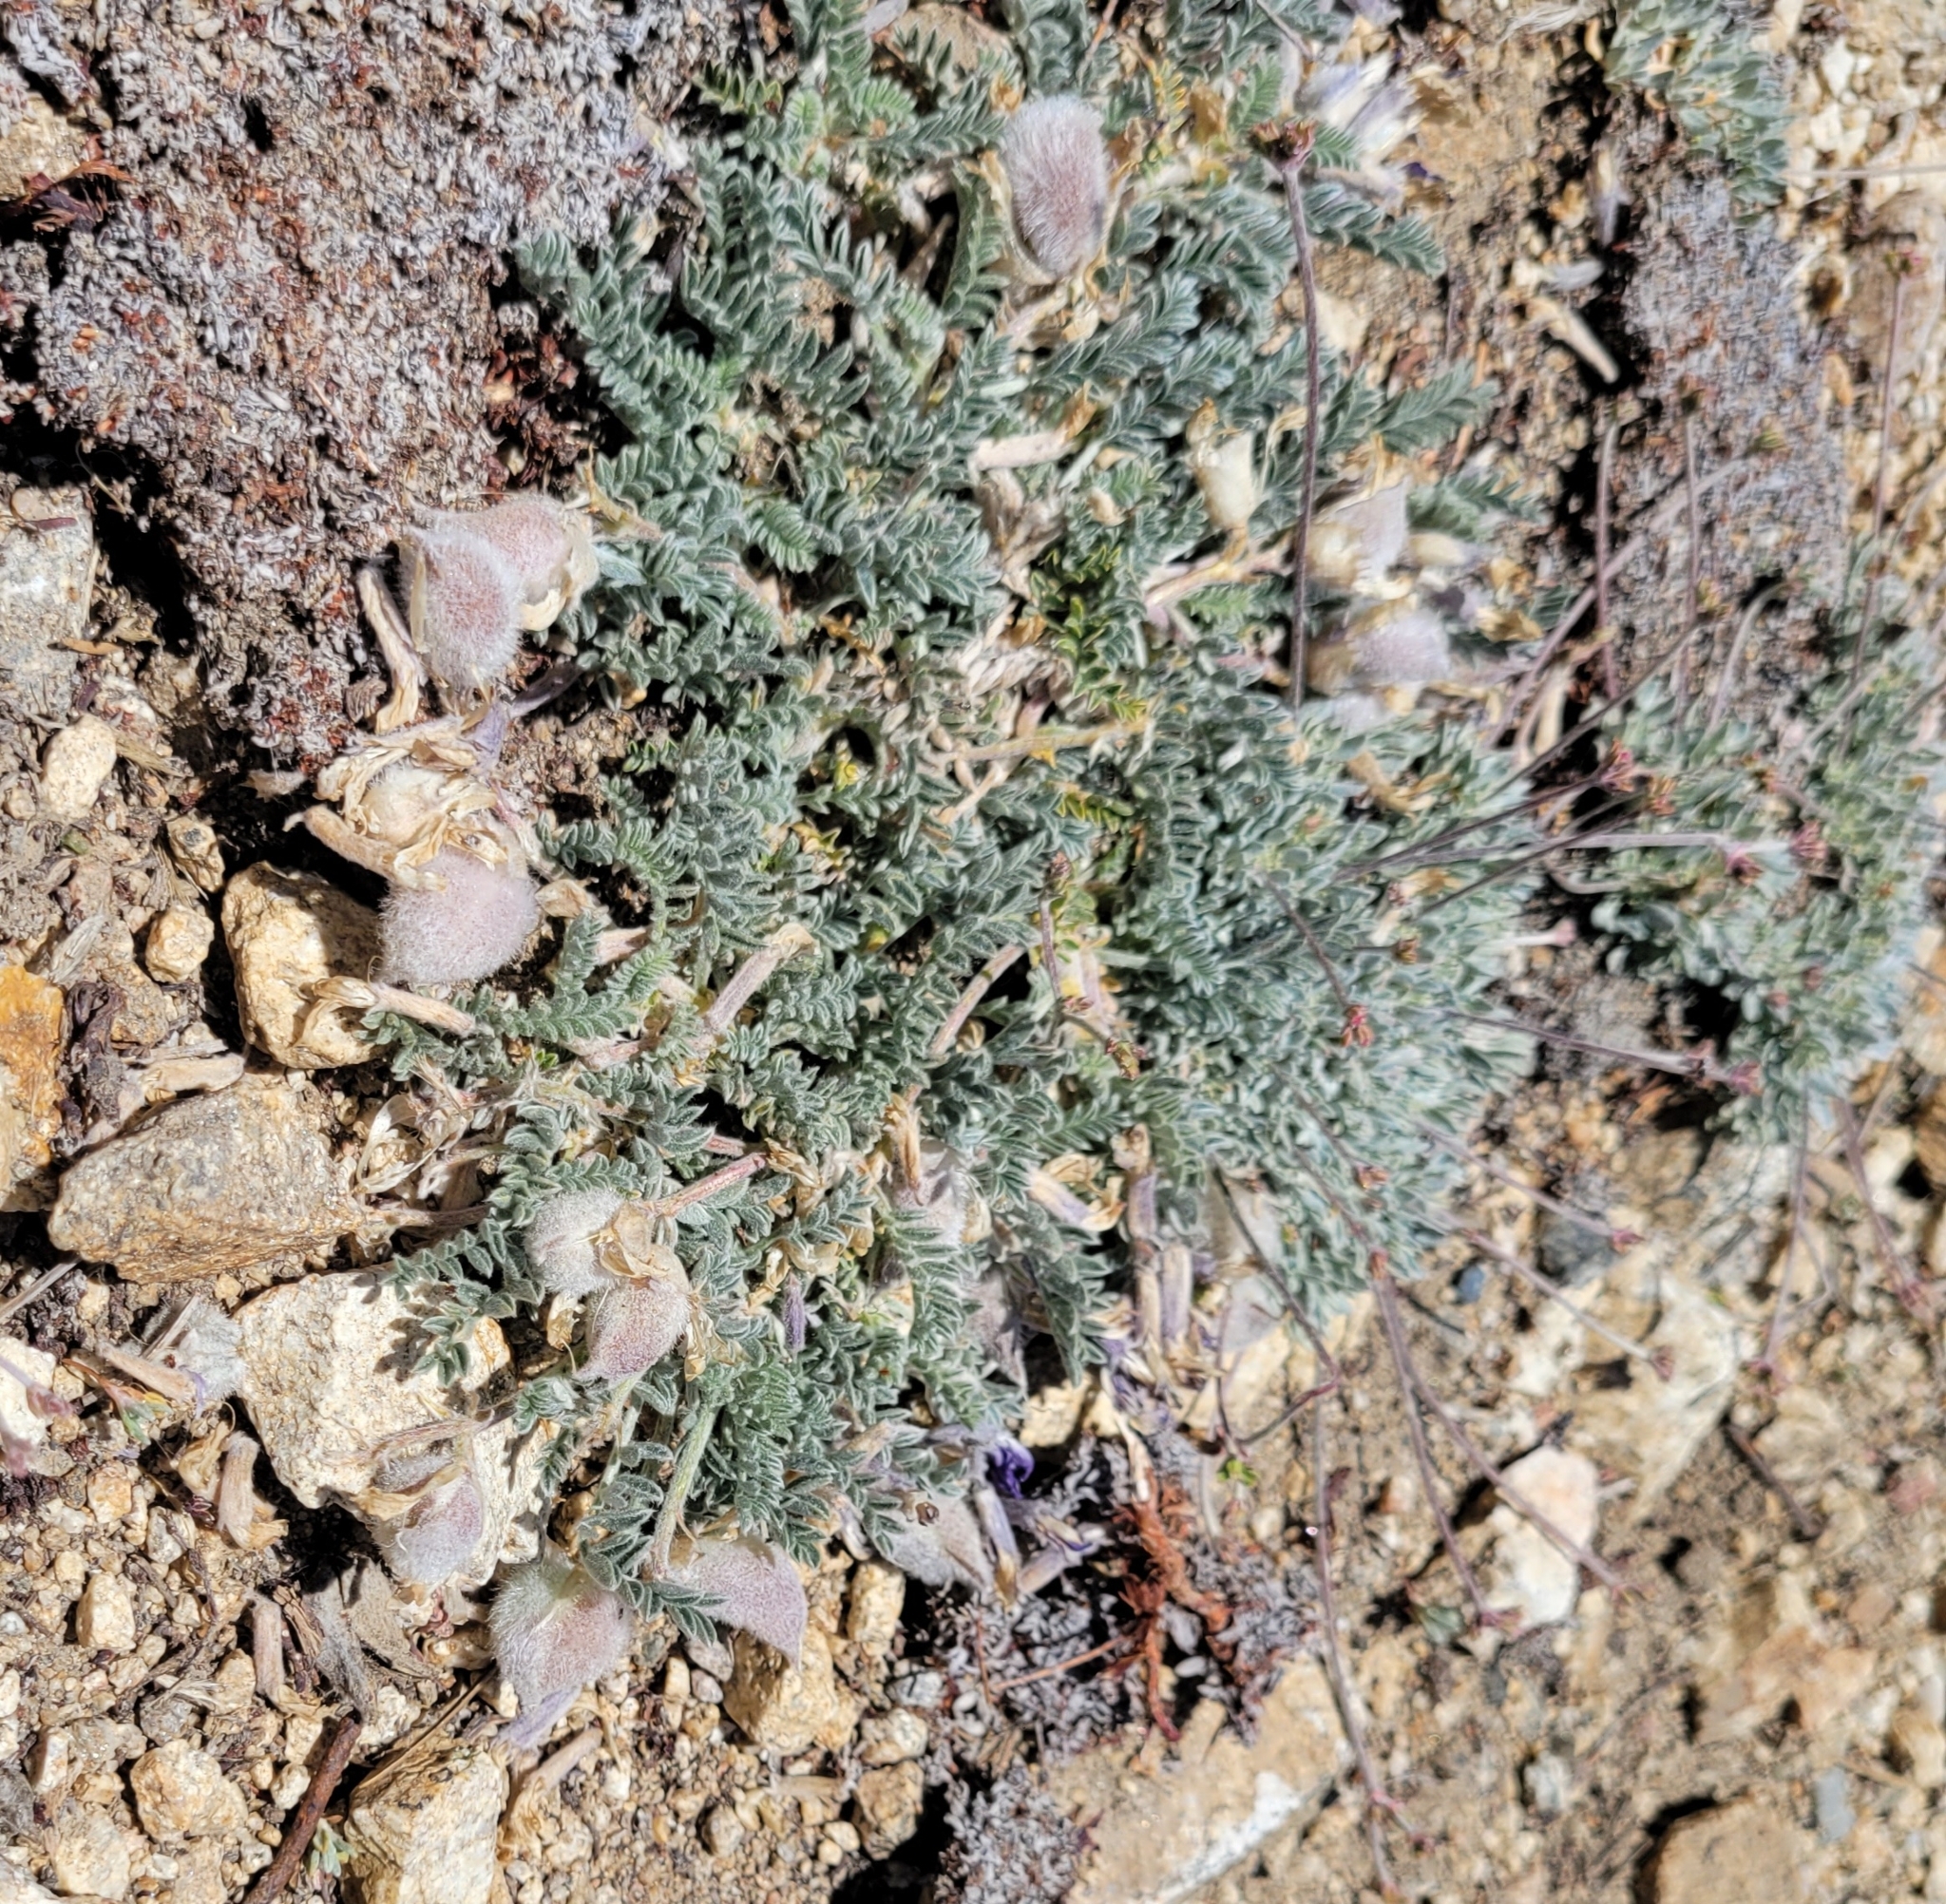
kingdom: Plantae
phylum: Tracheophyta
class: Magnoliopsida
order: Fabales
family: Fabaceae
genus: Astragalus
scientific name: Astragalus purshii
